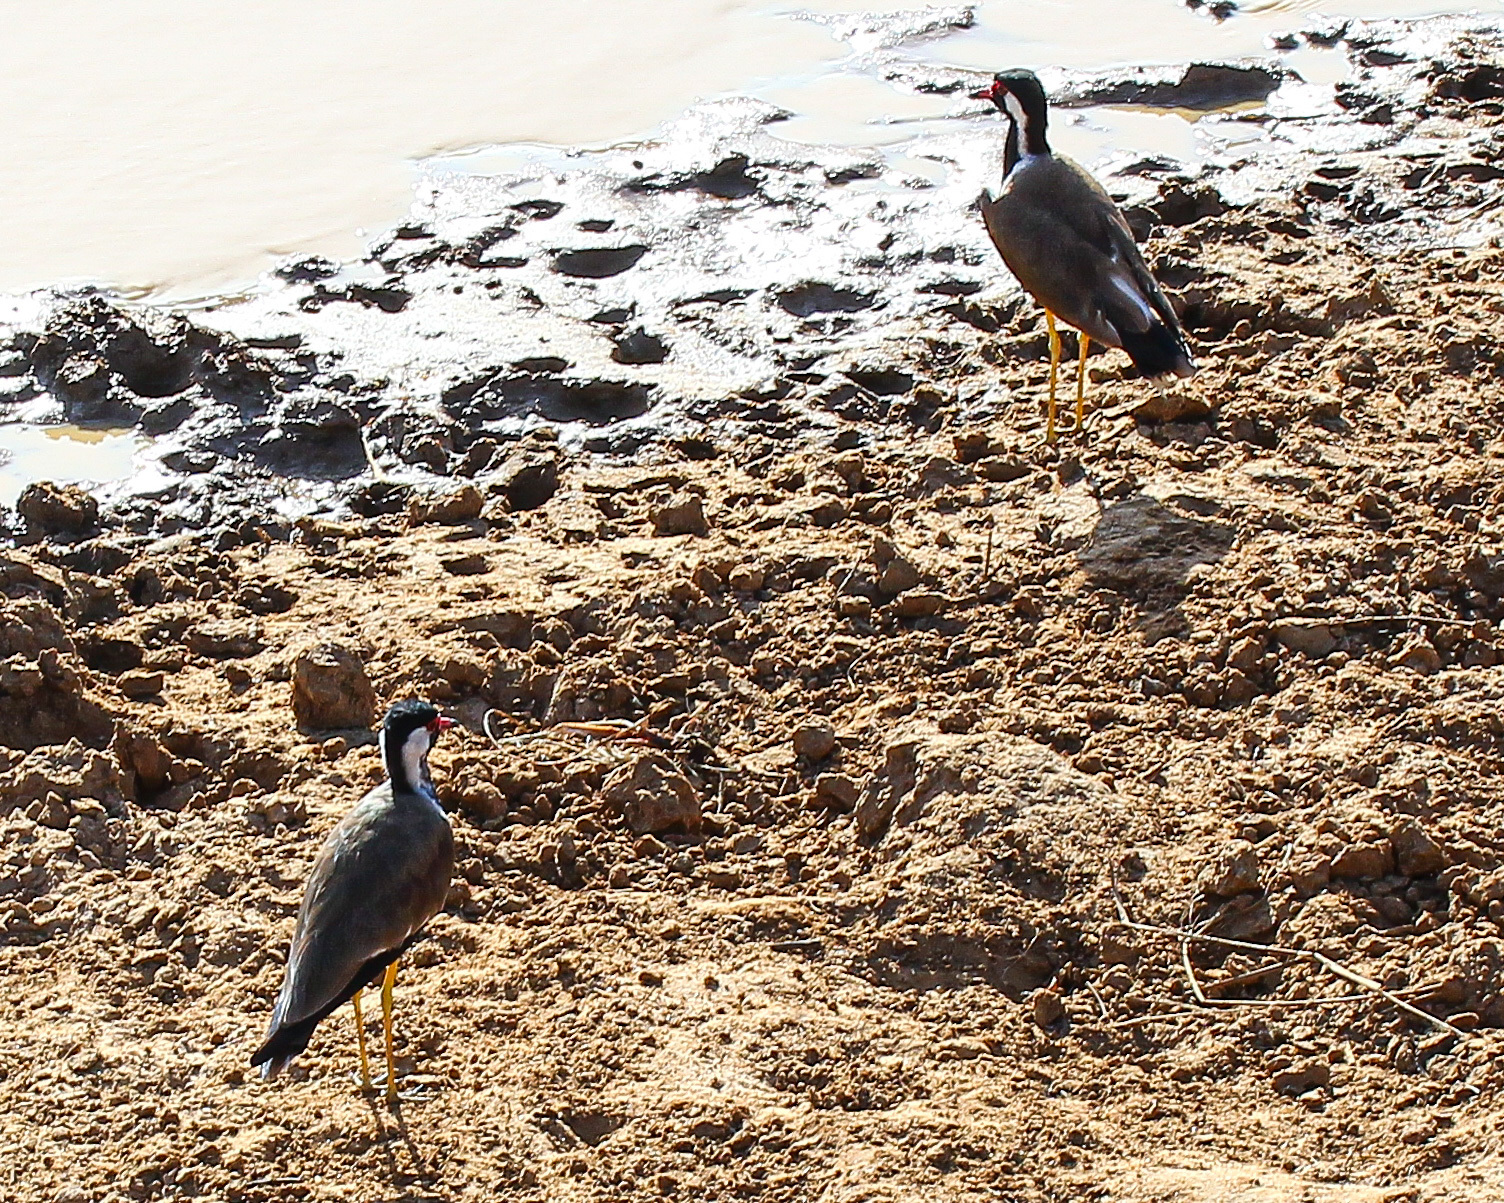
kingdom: Animalia
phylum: Chordata
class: Aves
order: Charadriiformes
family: Charadriidae
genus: Vanellus
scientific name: Vanellus indicus
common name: Red-wattled lapwing
